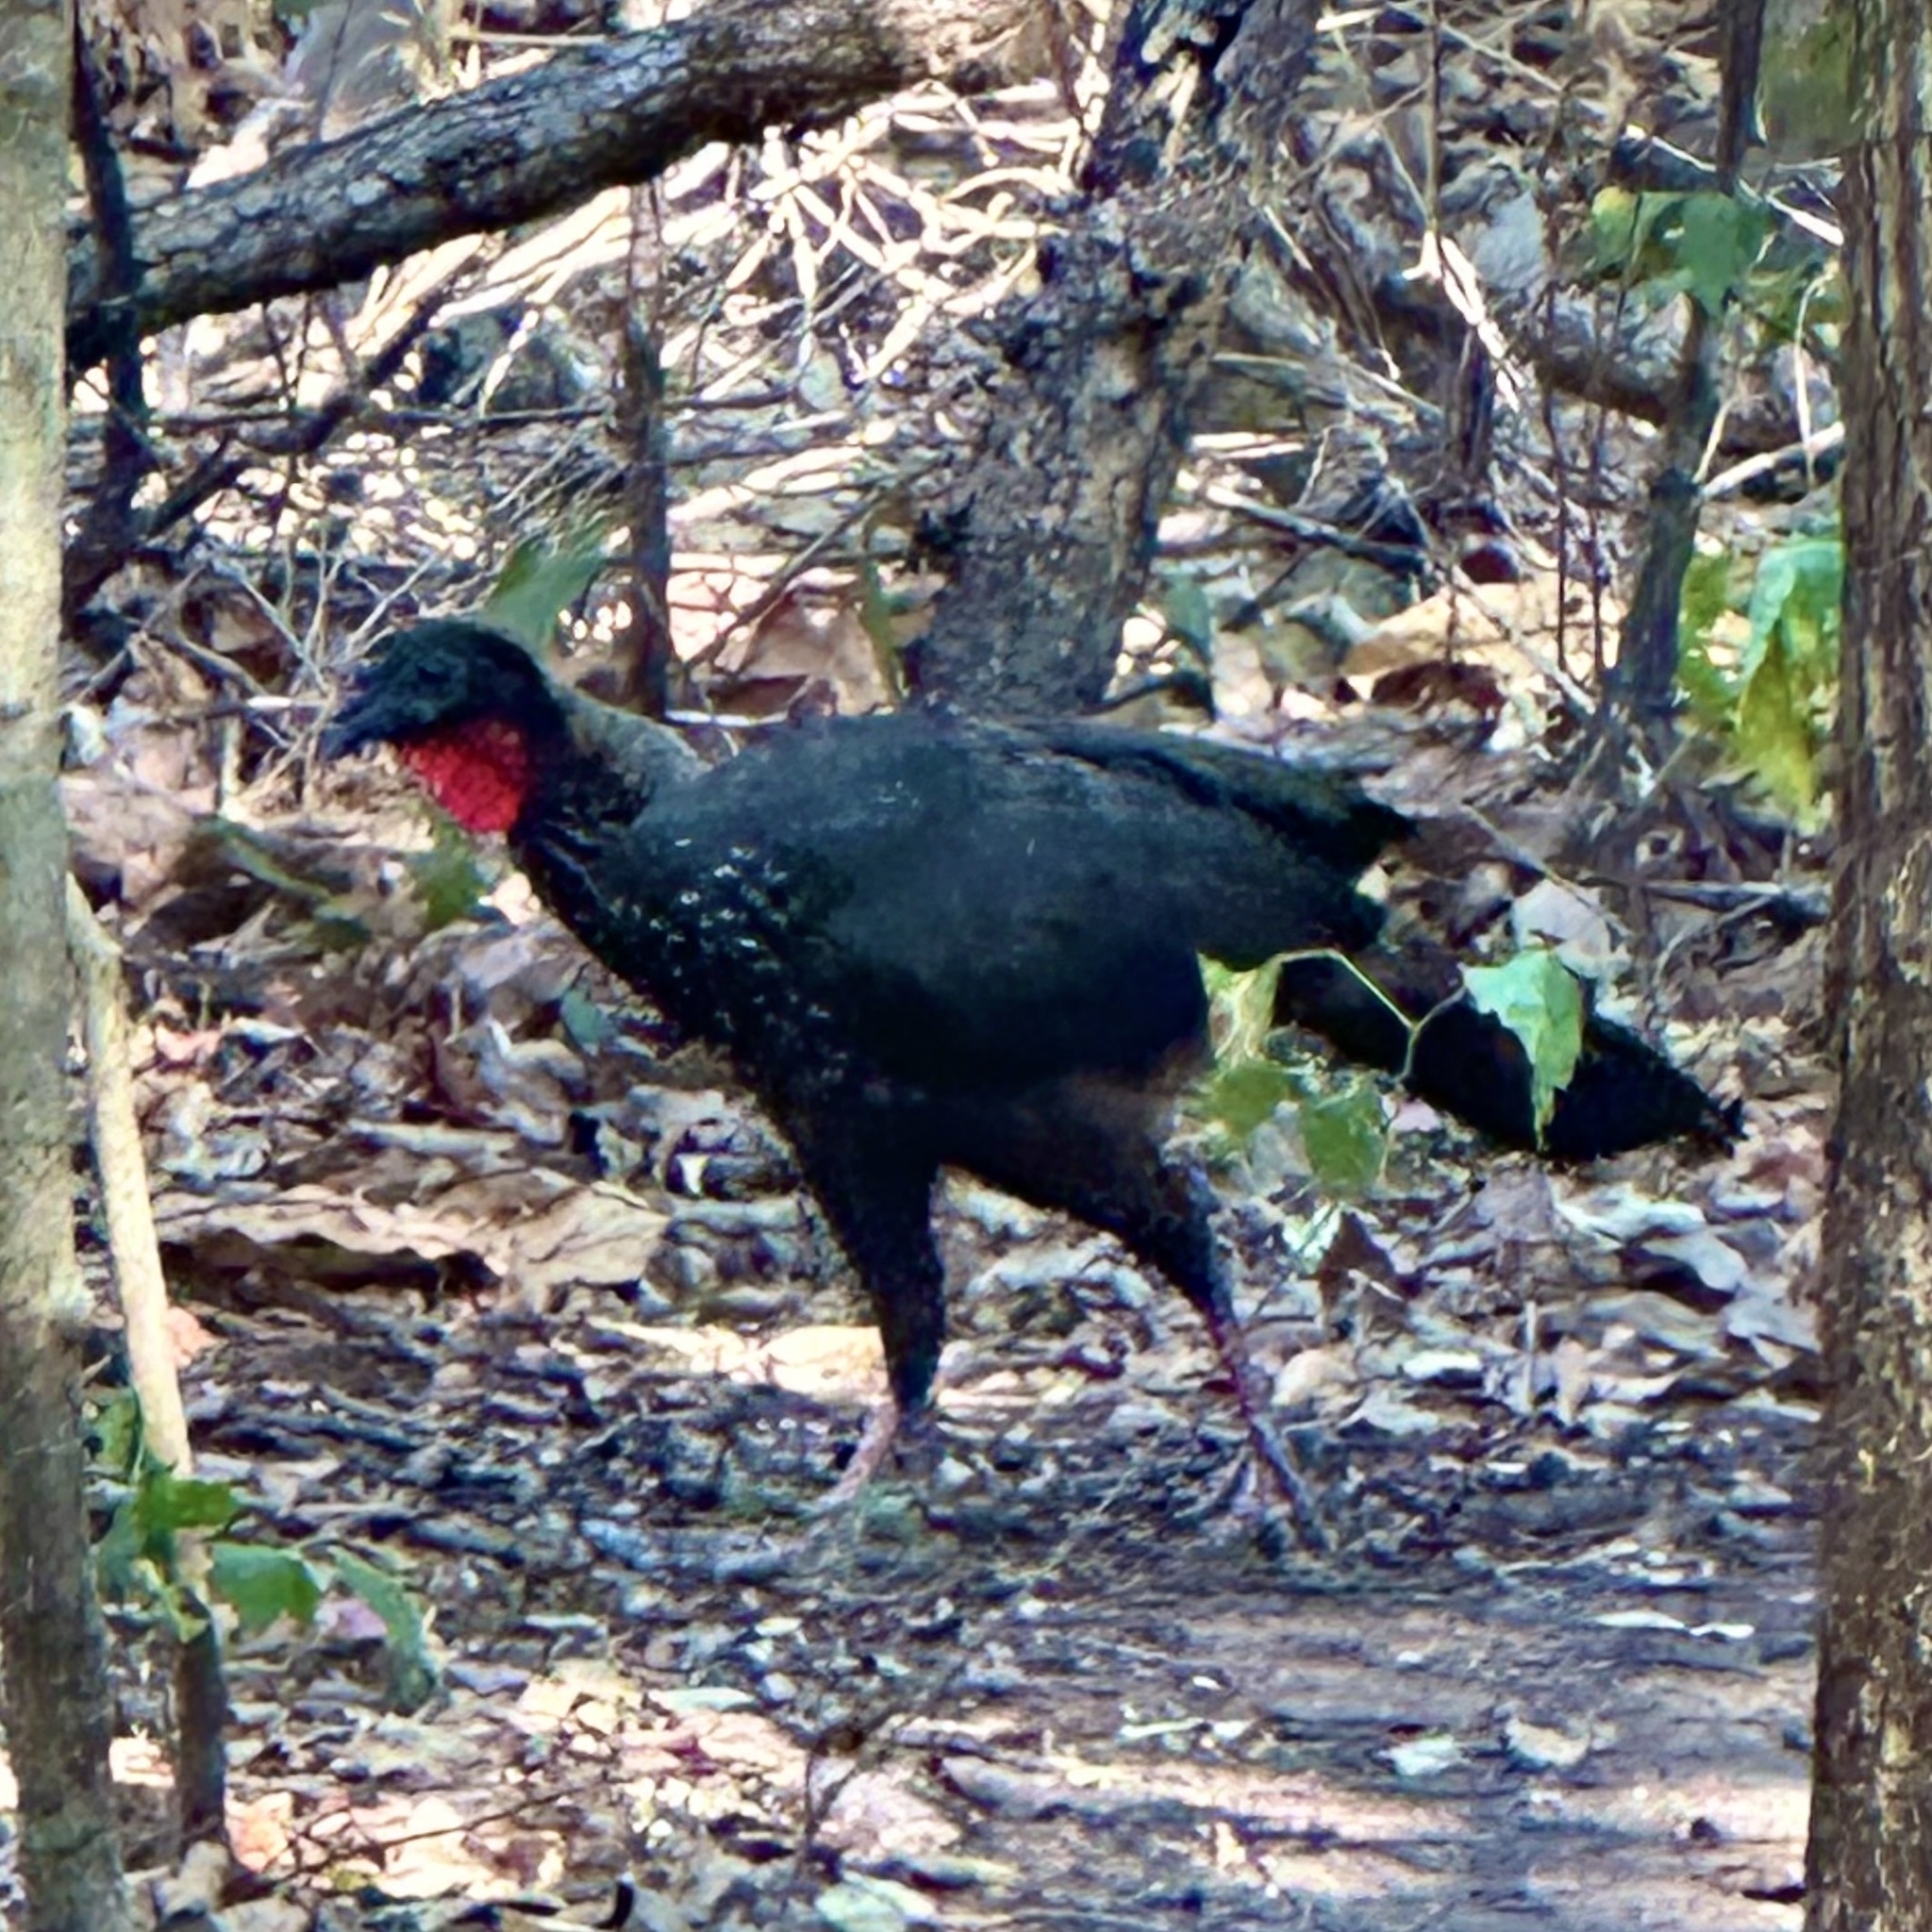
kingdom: Animalia
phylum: Chordata
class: Aves
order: Galliformes
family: Cracidae
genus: Penelope
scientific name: Penelope purpurascens
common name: Crested guan
